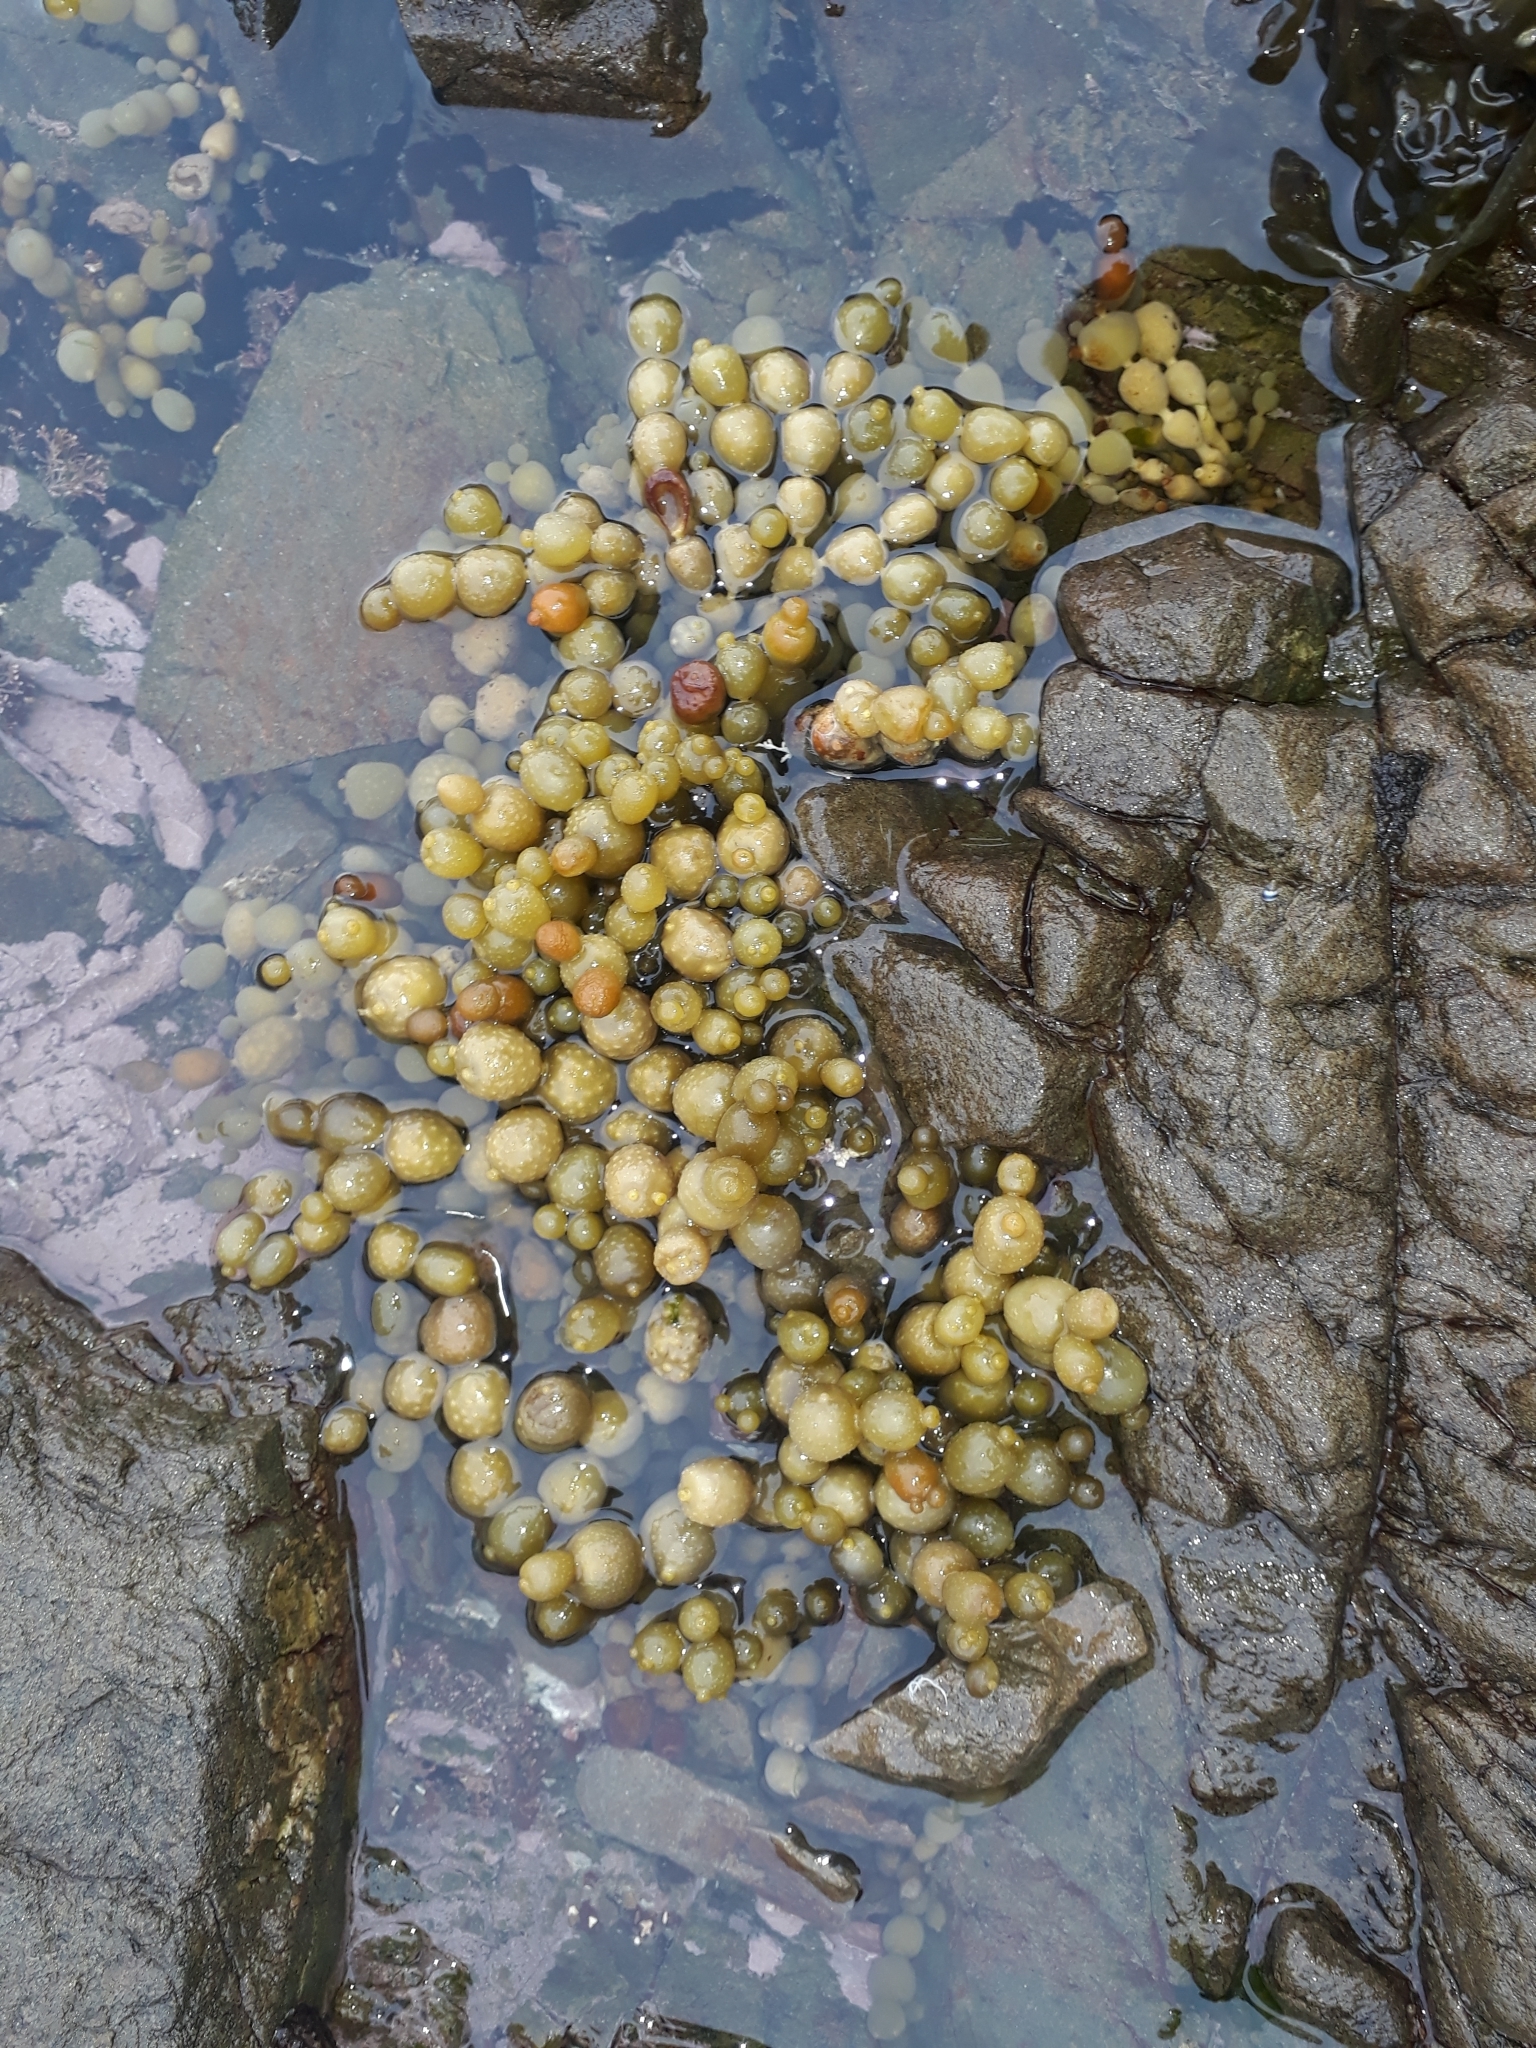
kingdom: Chromista
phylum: Ochrophyta
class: Phaeophyceae
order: Fucales
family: Hormosiraceae
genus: Hormosira
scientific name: Hormosira banksii
